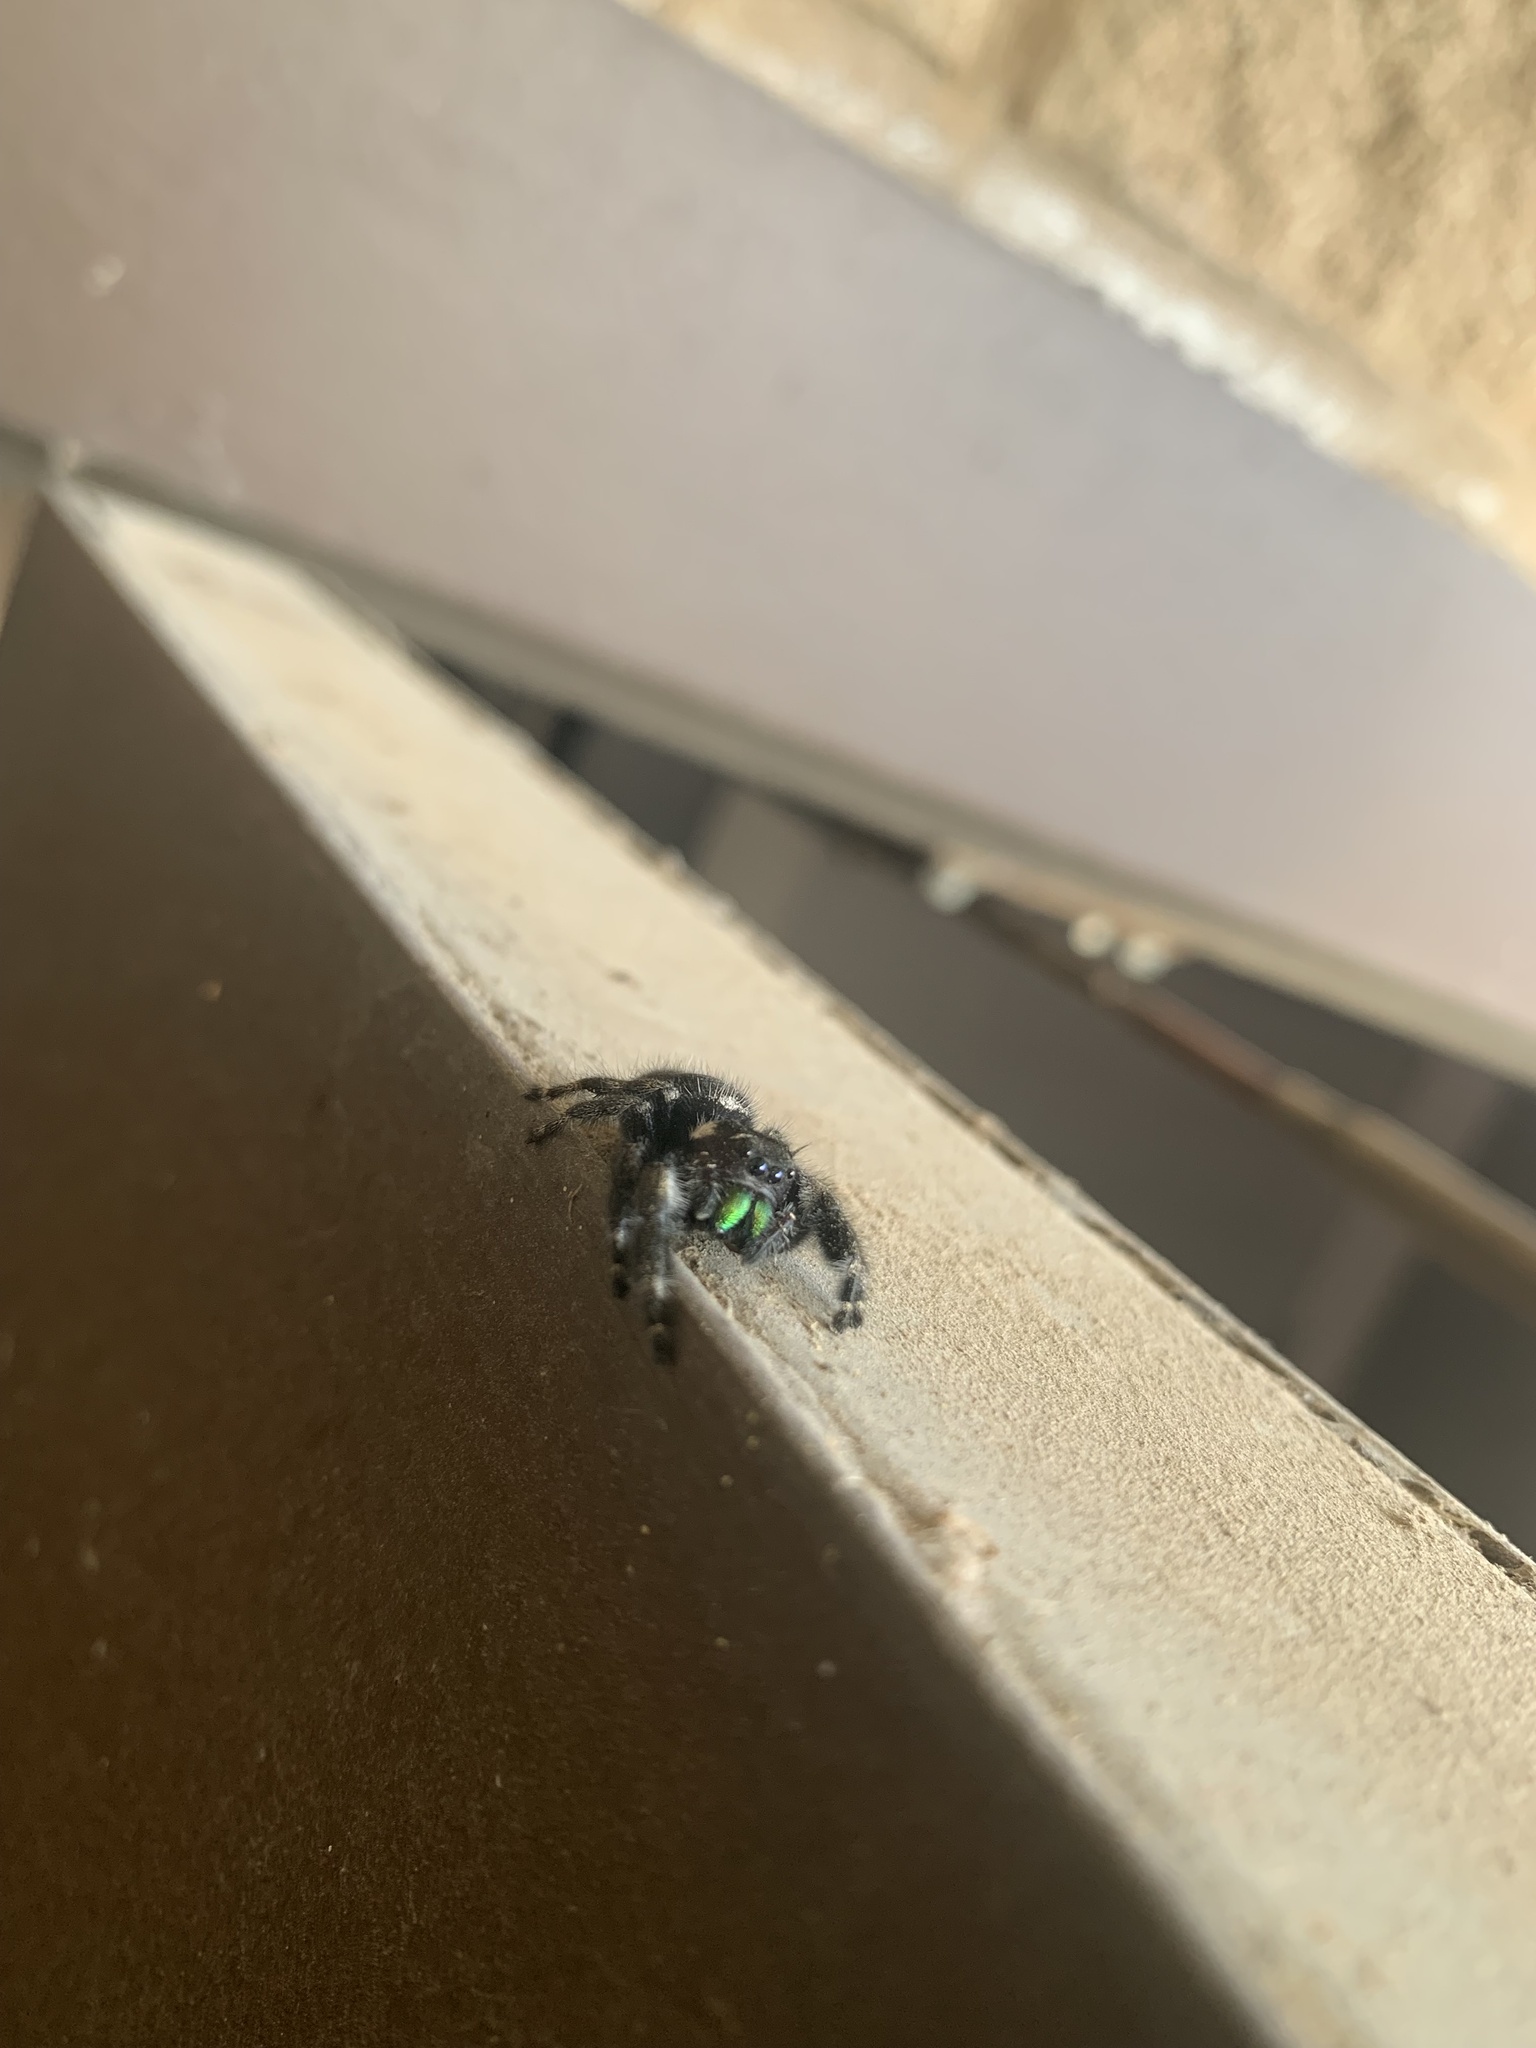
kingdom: Animalia
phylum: Arthropoda
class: Arachnida
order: Araneae
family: Salticidae
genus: Phidippus
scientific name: Phidippus audax
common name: Bold jumper
